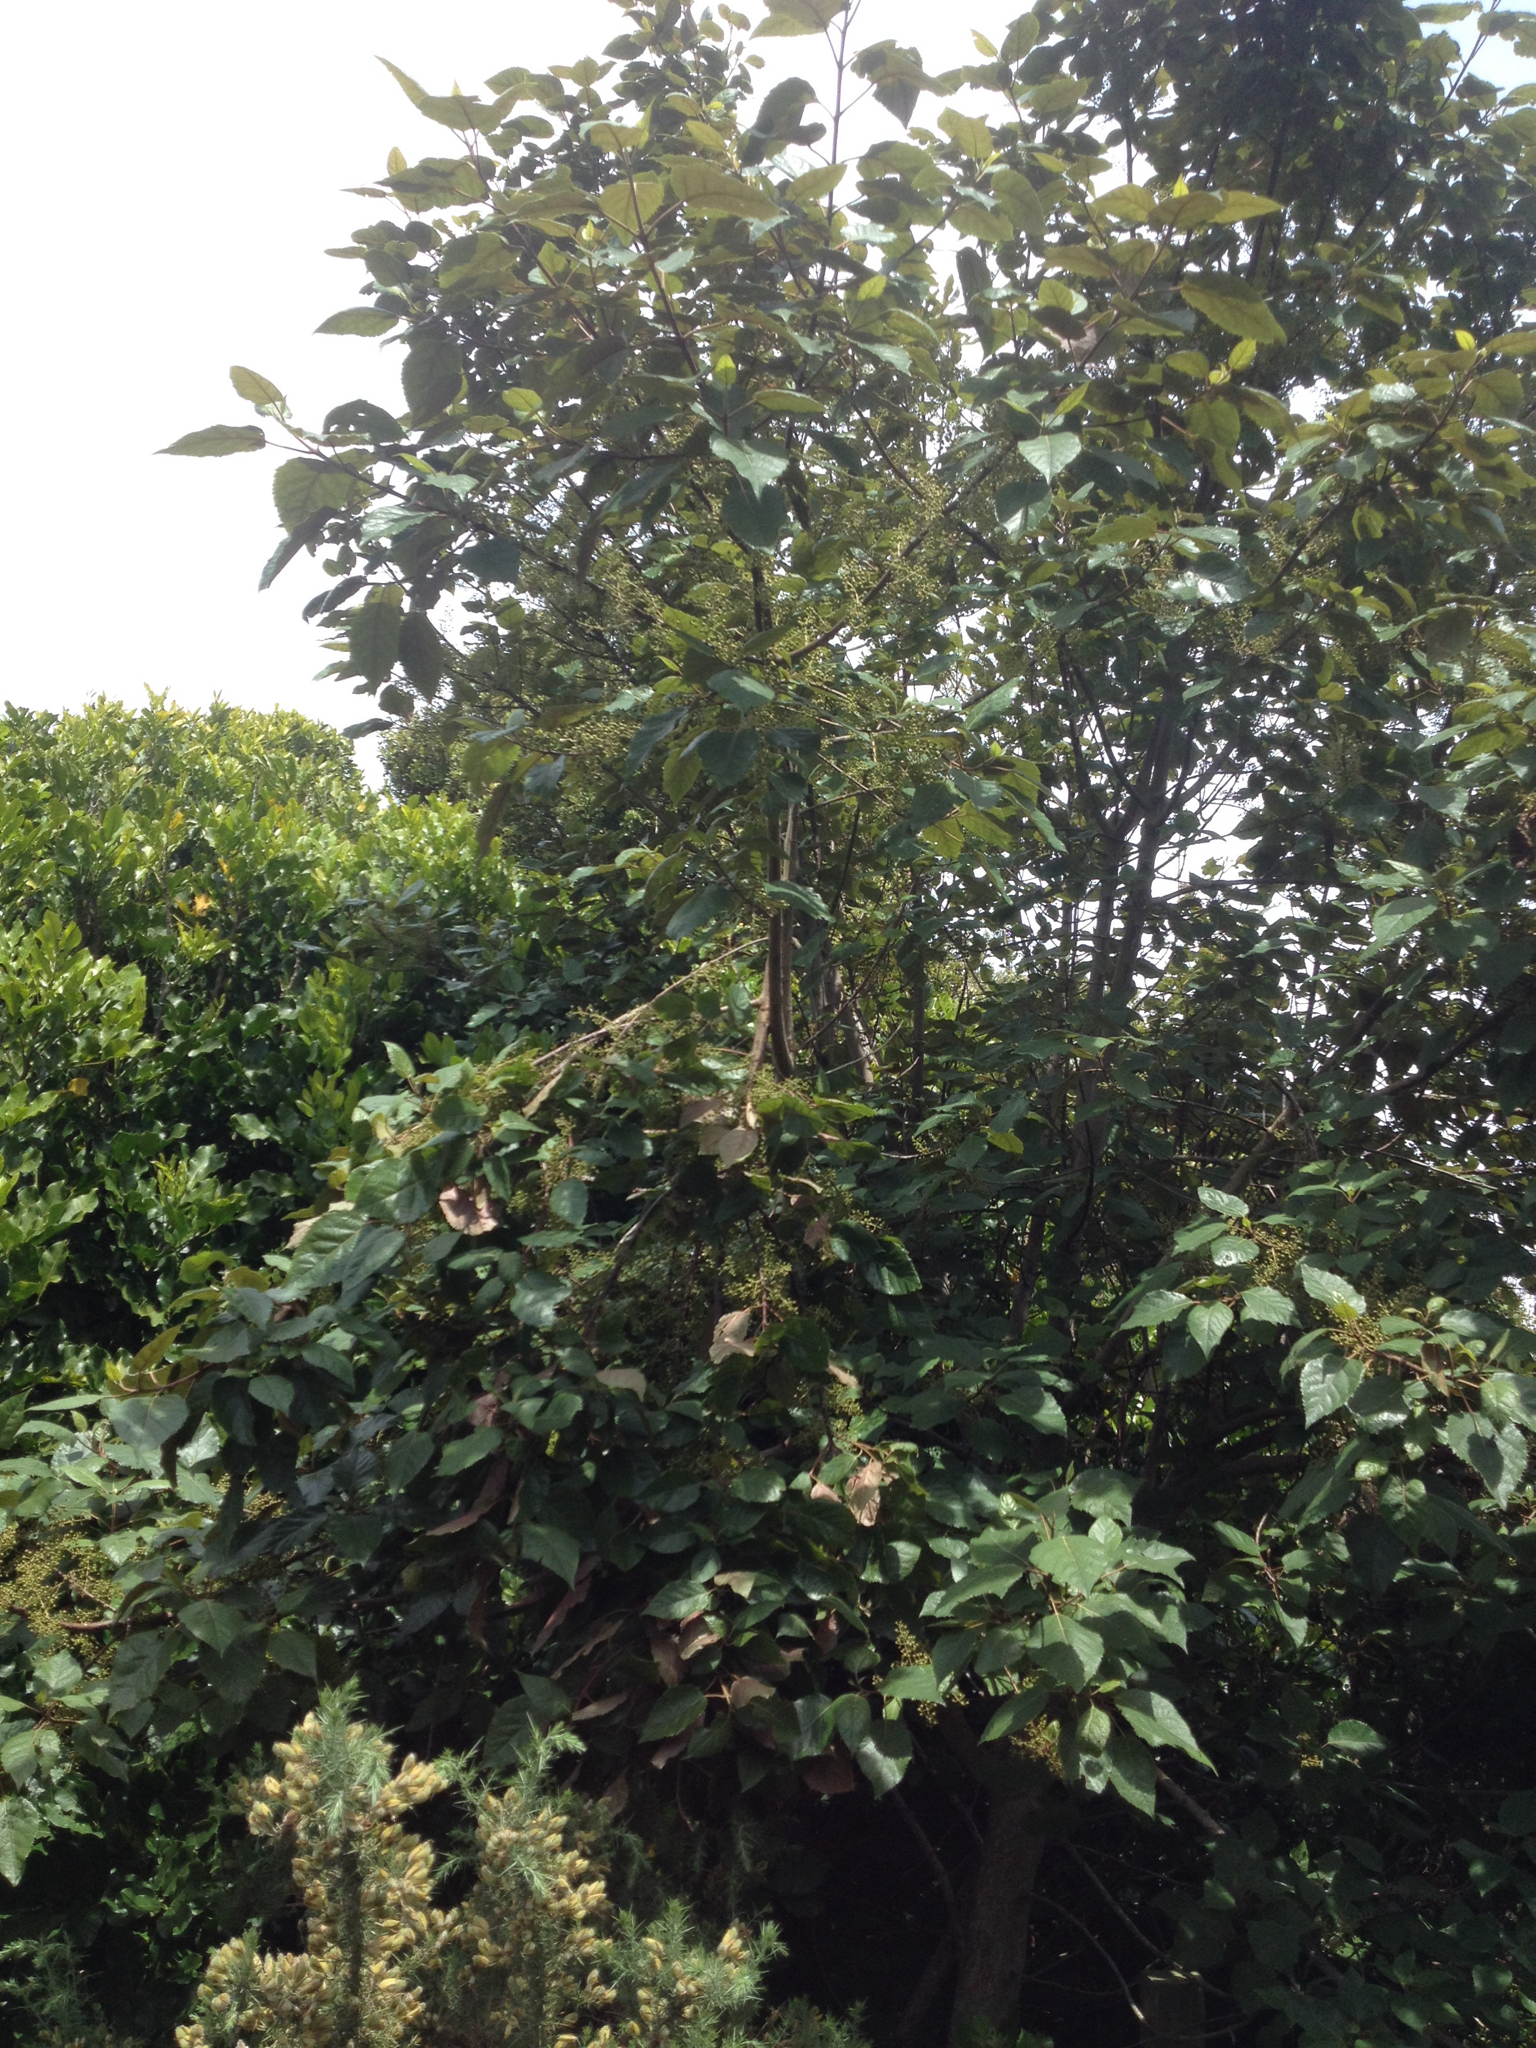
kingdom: Plantae
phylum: Tracheophyta
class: Magnoliopsida
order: Oxalidales
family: Elaeocarpaceae
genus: Aristotelia
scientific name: Aristotelia serrata
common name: New zealand wineberry
